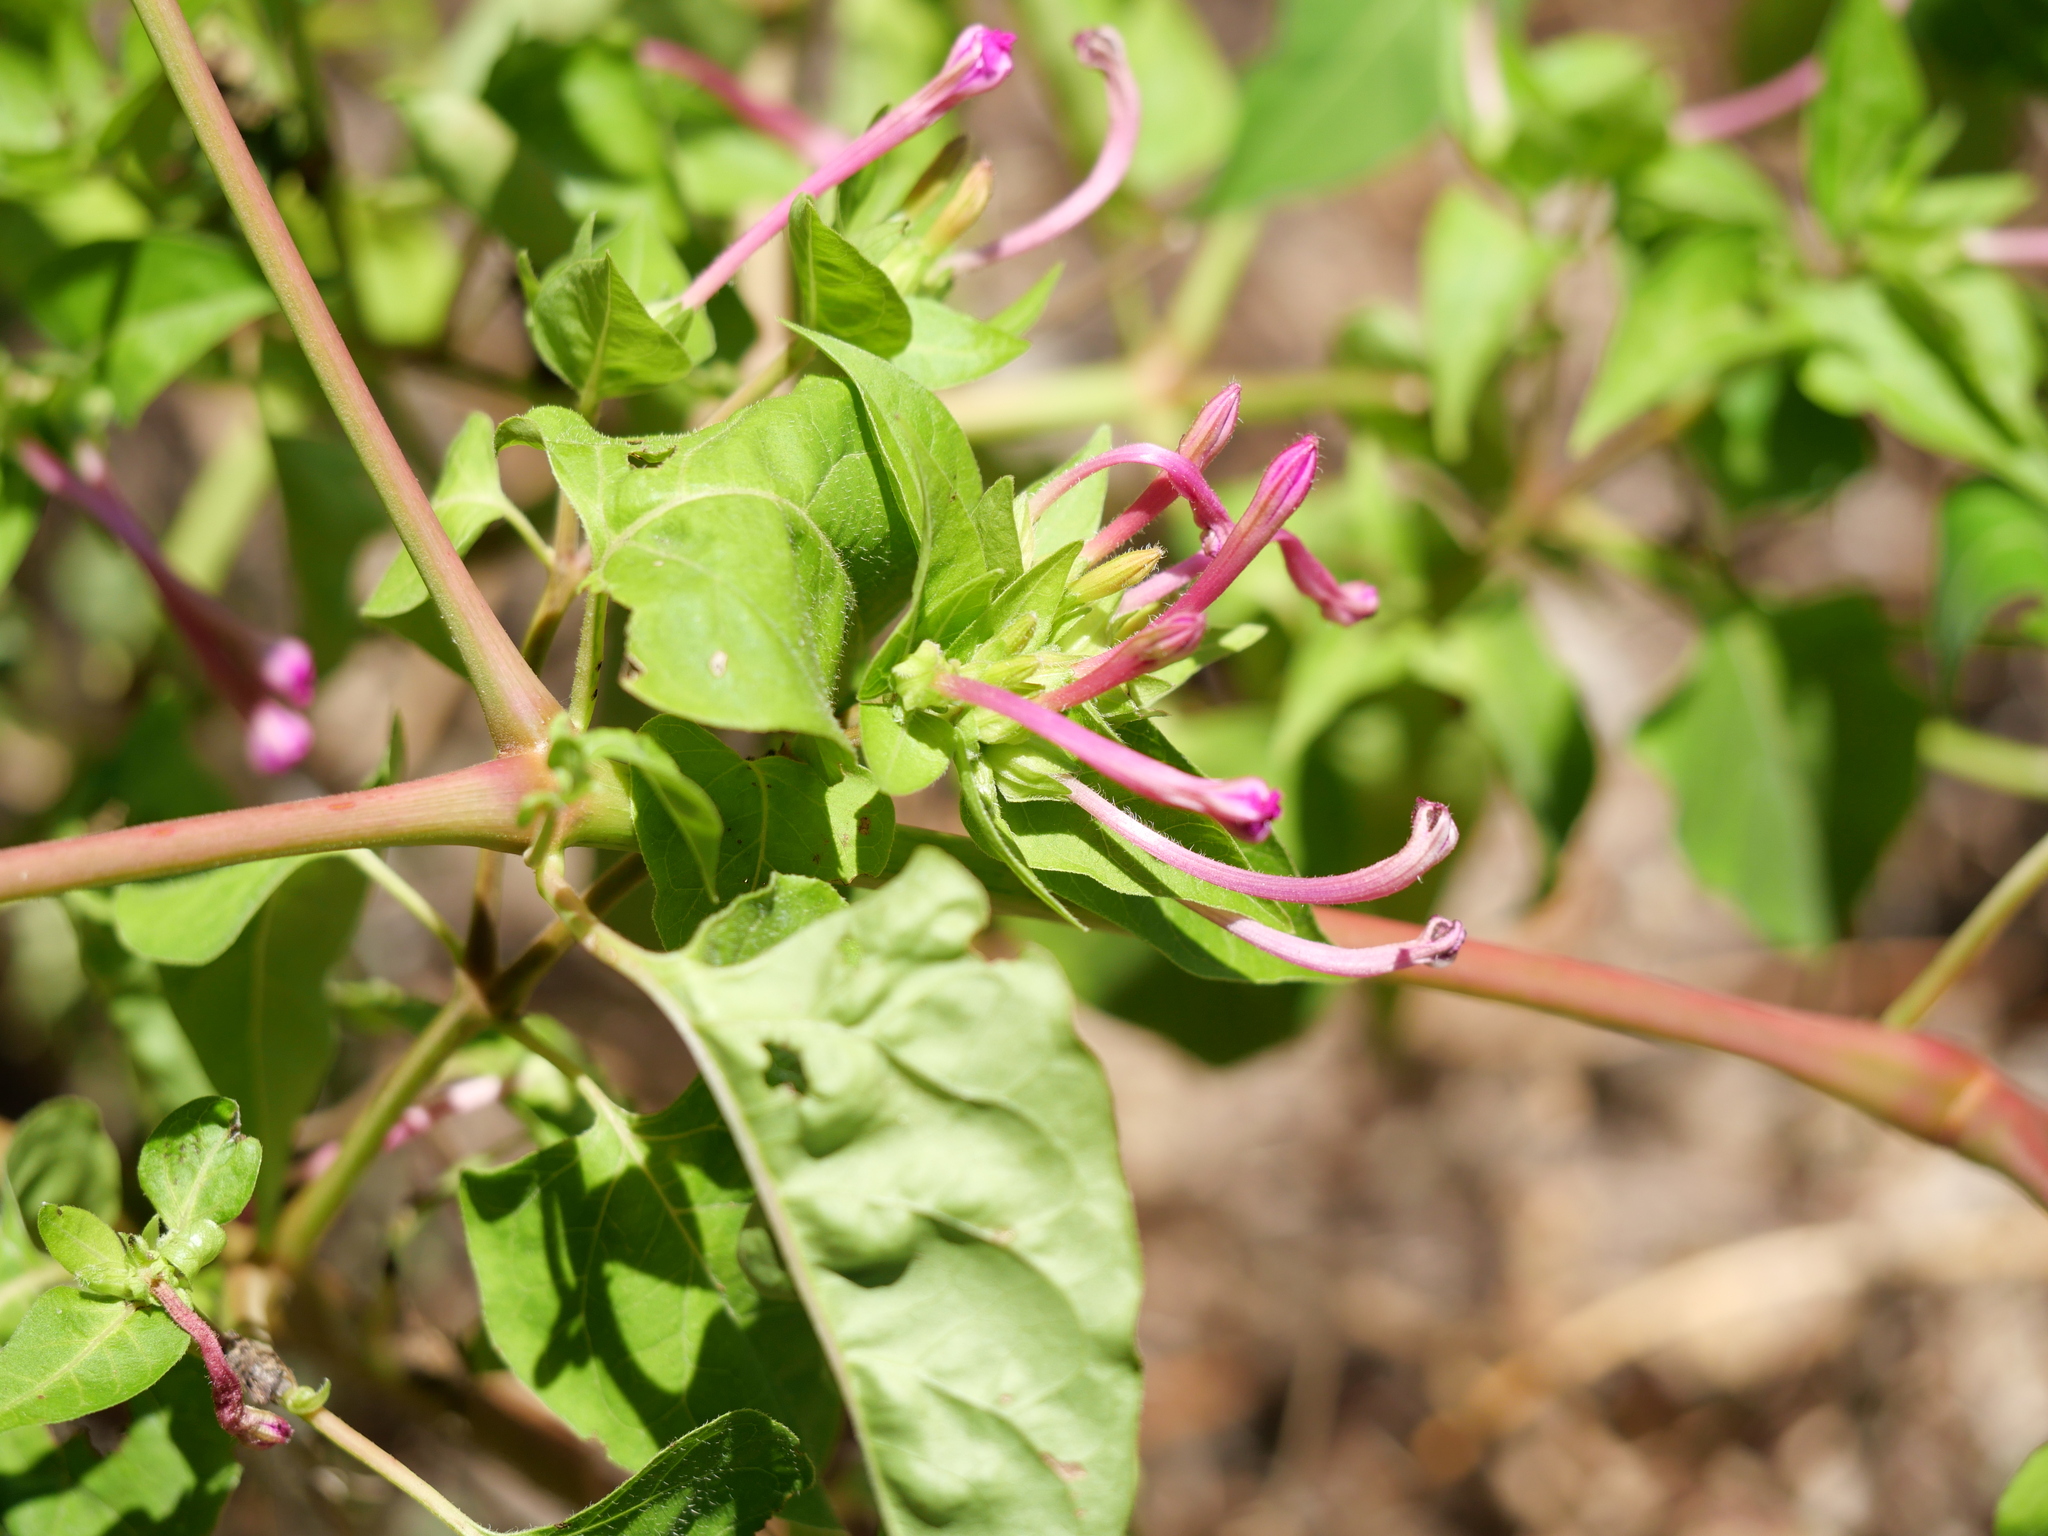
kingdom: Plantae
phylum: Tracheophyta
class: Magnoliopsida
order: Caryophyllales
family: Nyctaginaceae
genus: Mirabilis
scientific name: Mirabilis jalapa
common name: Marvel-of-peru
